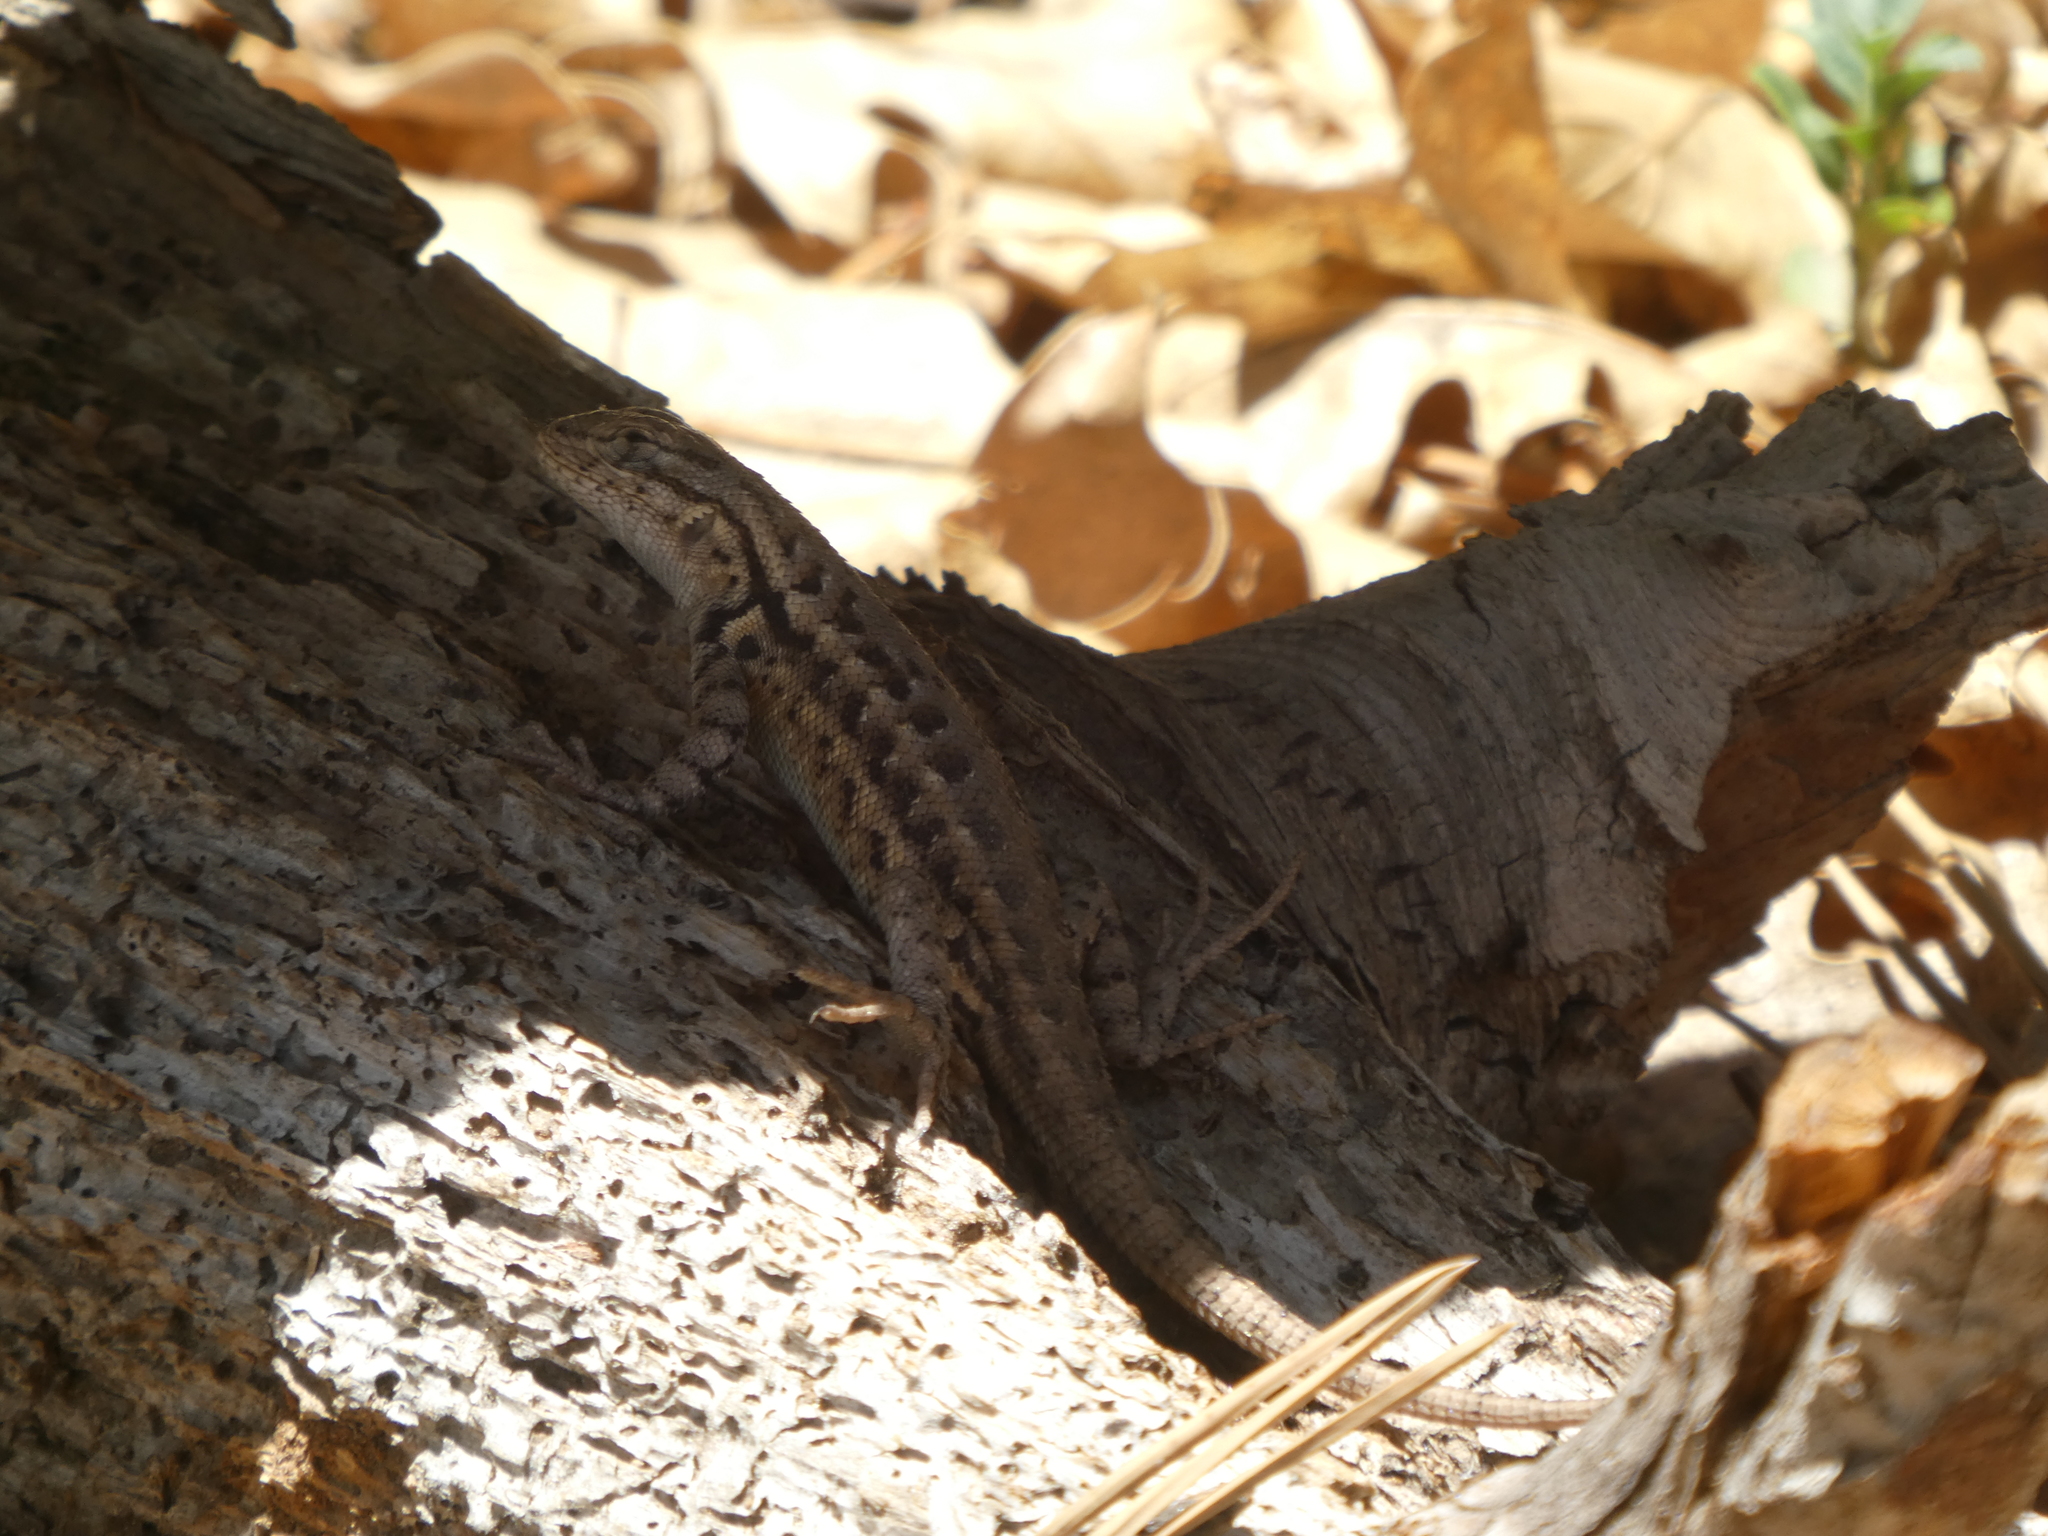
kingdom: Animalia
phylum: Chordata
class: Squamata
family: Phrynosomatidae
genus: Sceloporus
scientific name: Sceloporus graciosus
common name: Sagebrush lizard
